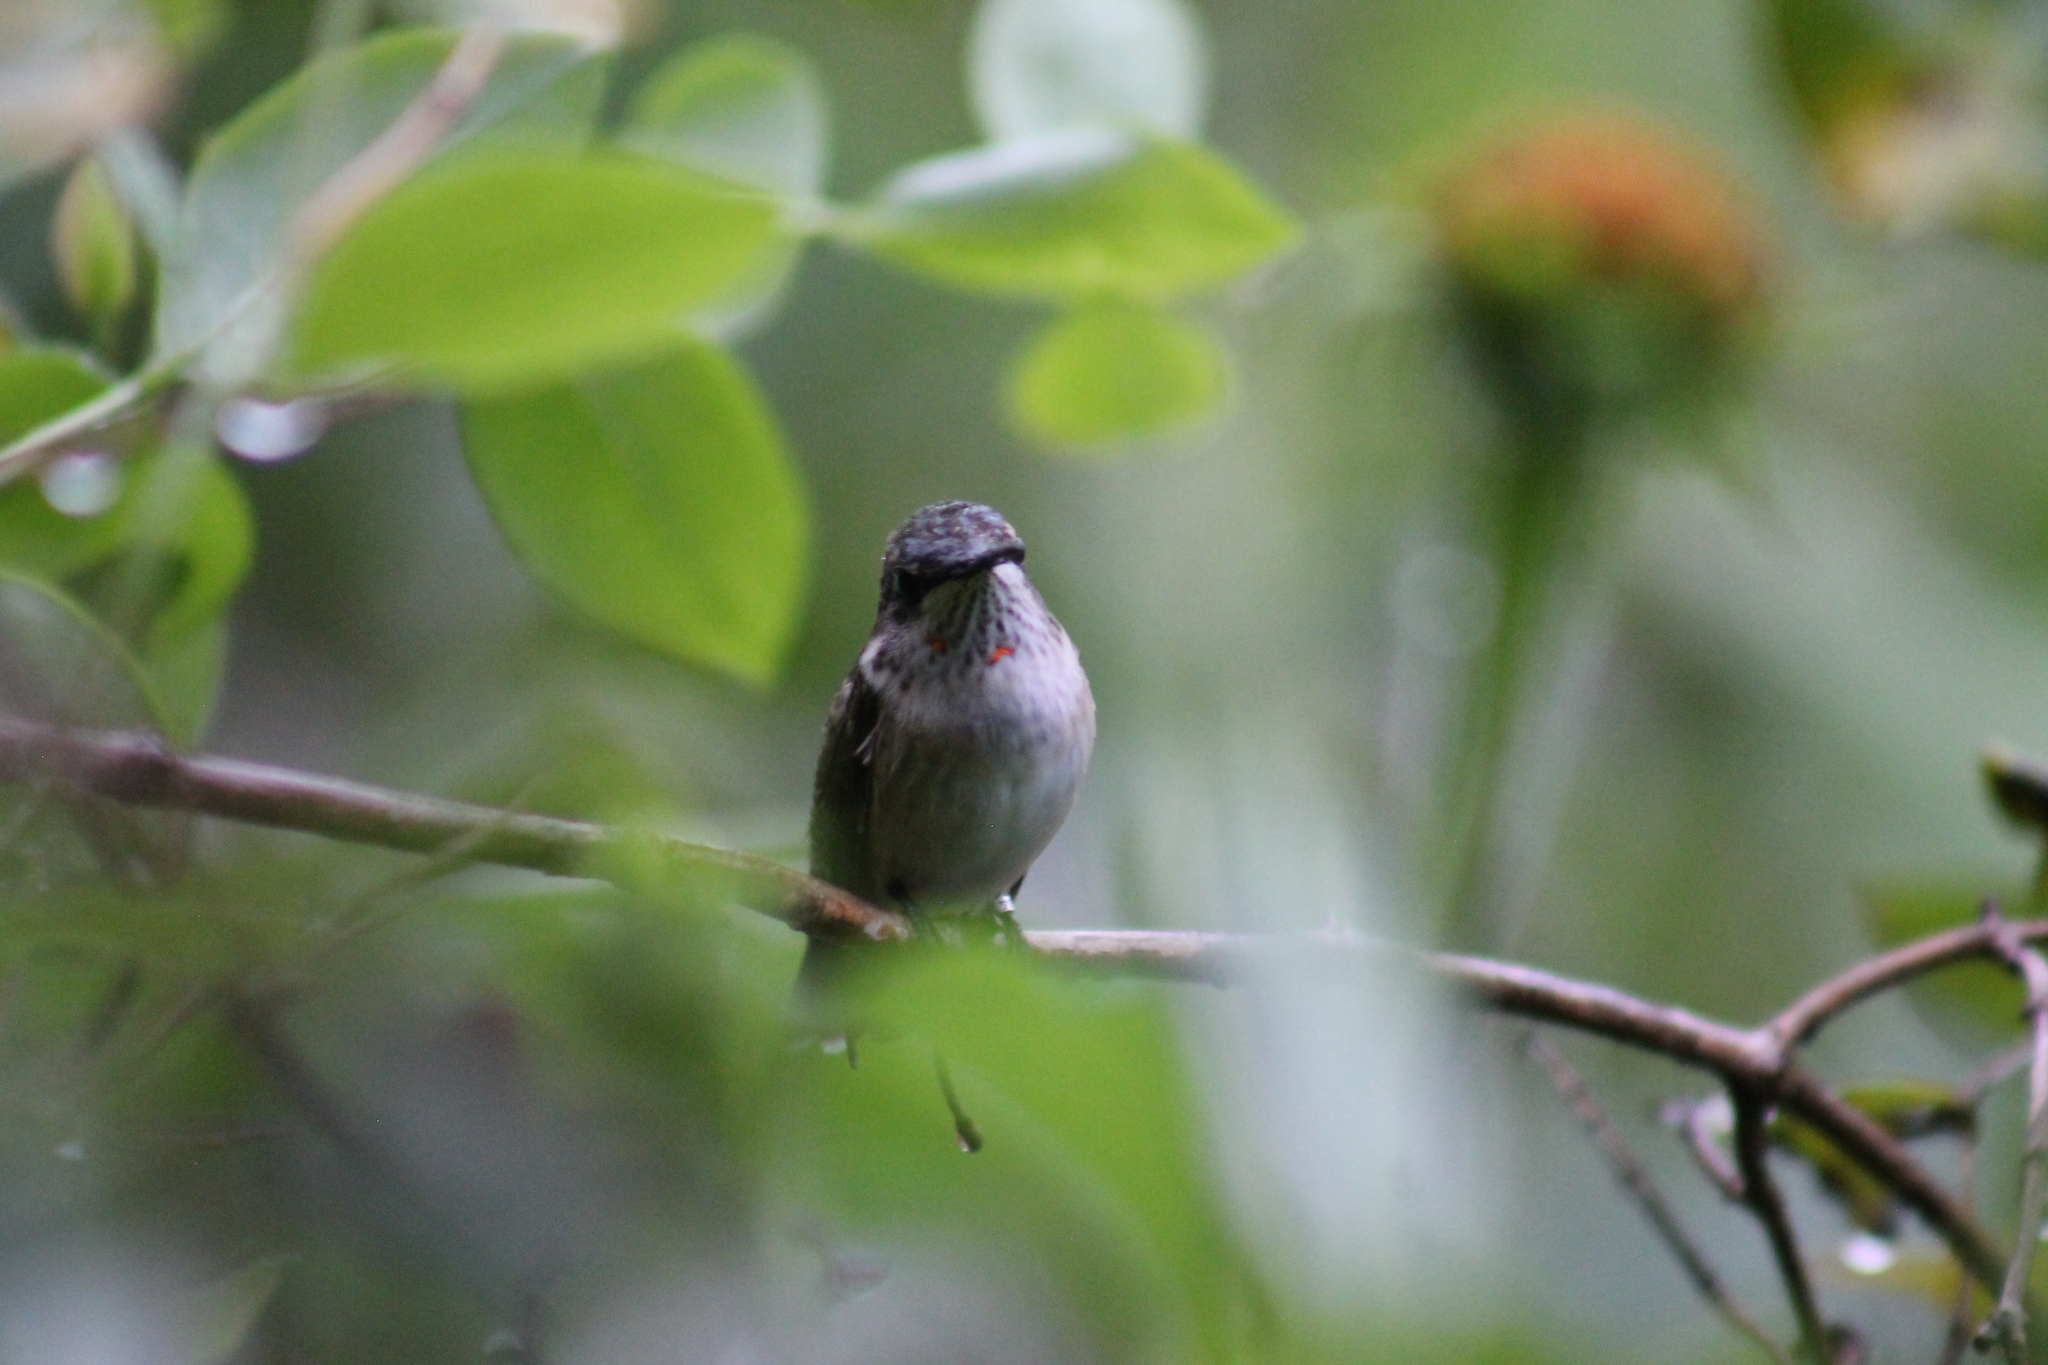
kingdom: Animalia
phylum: Chordata
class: Aves
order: Apodiformes
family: Trochilidae
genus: Archilochus
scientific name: Archilochus colubris
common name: Ruby-throated hummingbird
